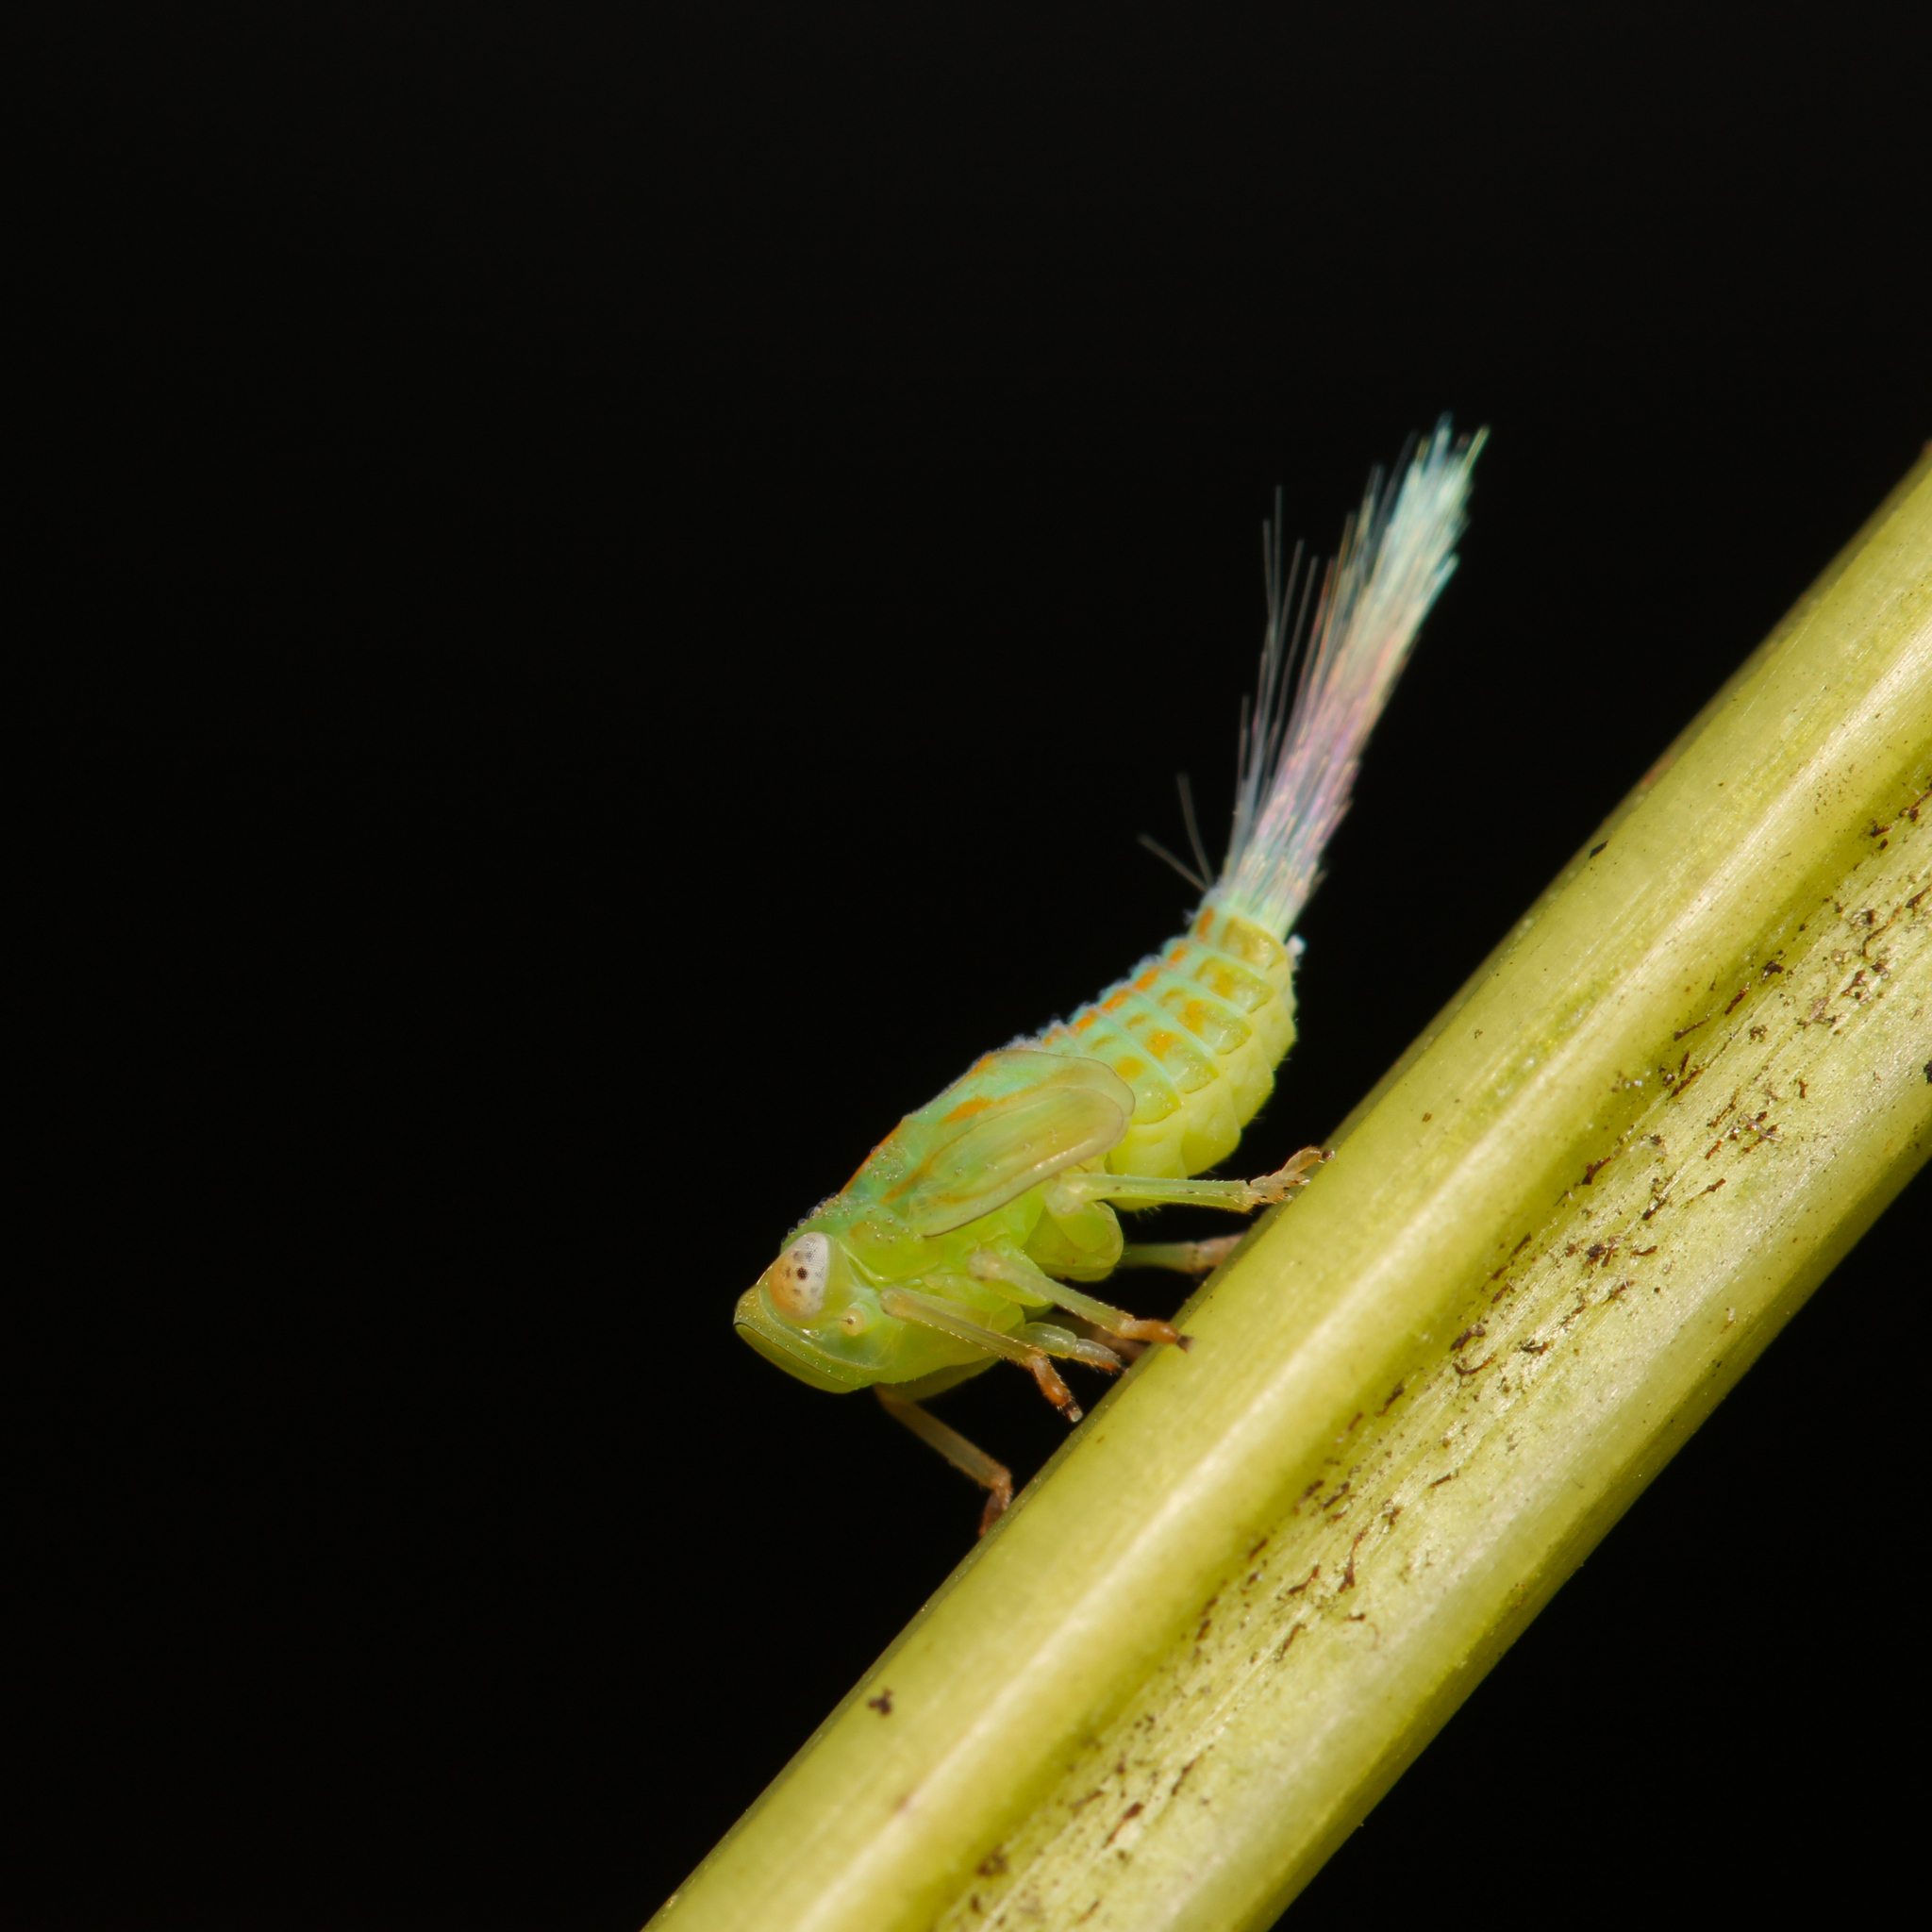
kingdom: Animalia
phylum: Arthropoda
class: Insecta
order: Hemiptera
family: Issidae
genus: Aplos
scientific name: Aplos simplex
